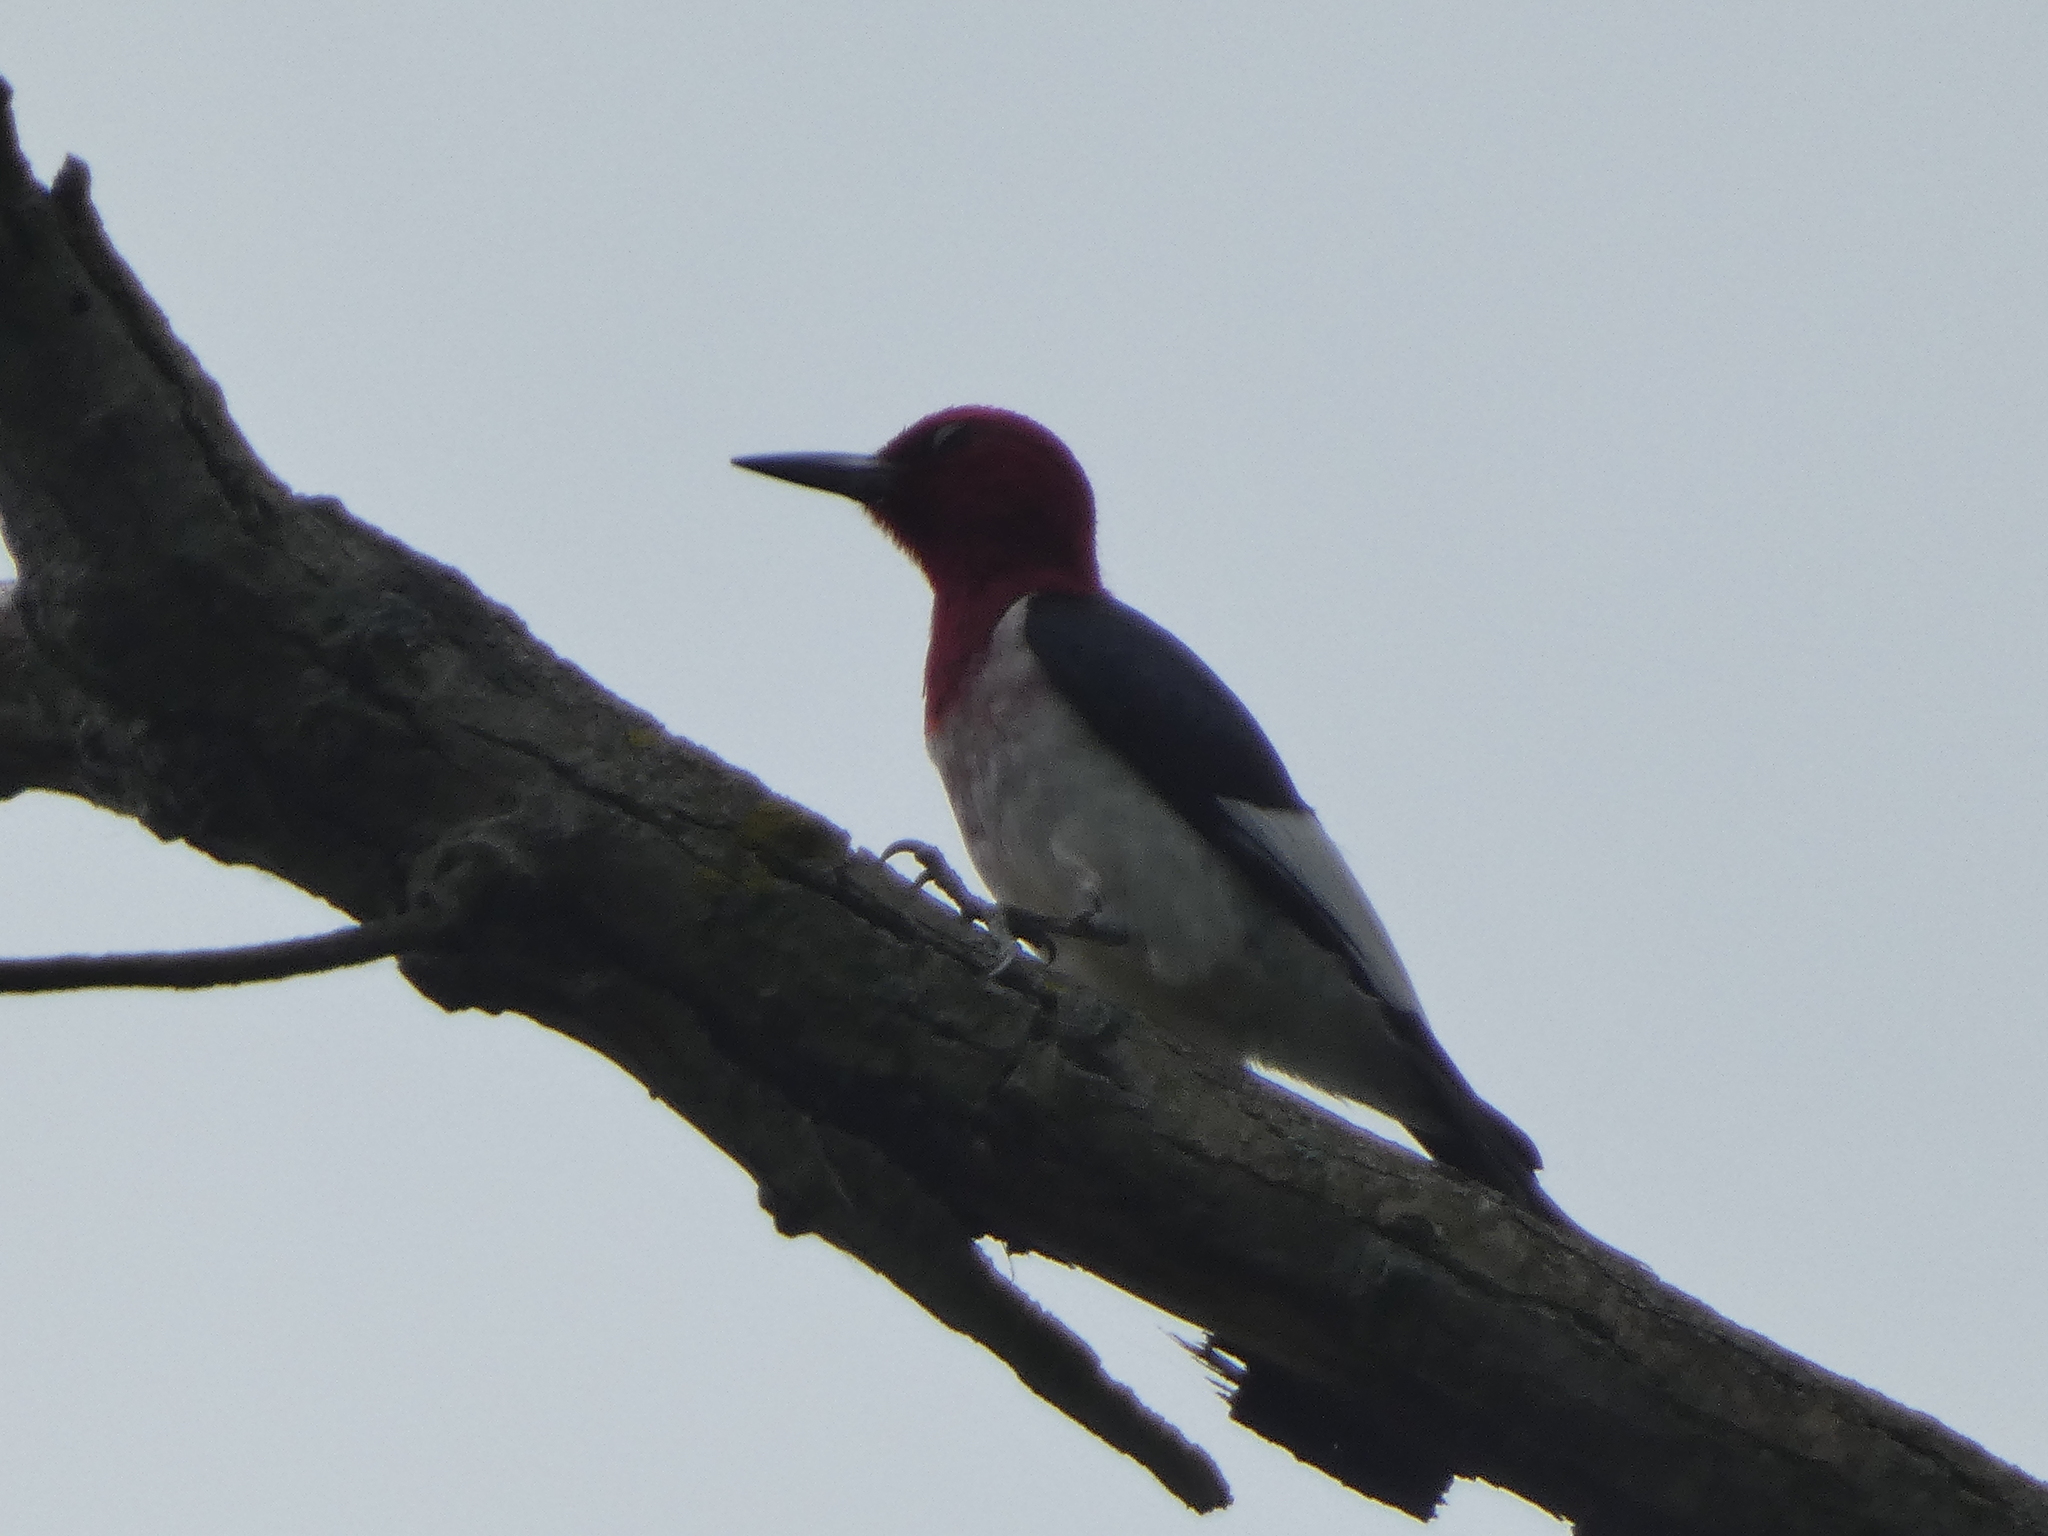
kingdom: Animalia
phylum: Chordata
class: Aves
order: Piciformes
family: Picidae
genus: Melanerpes
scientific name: Melanerpes erythrocephalus
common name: Red-headed woodpecker
